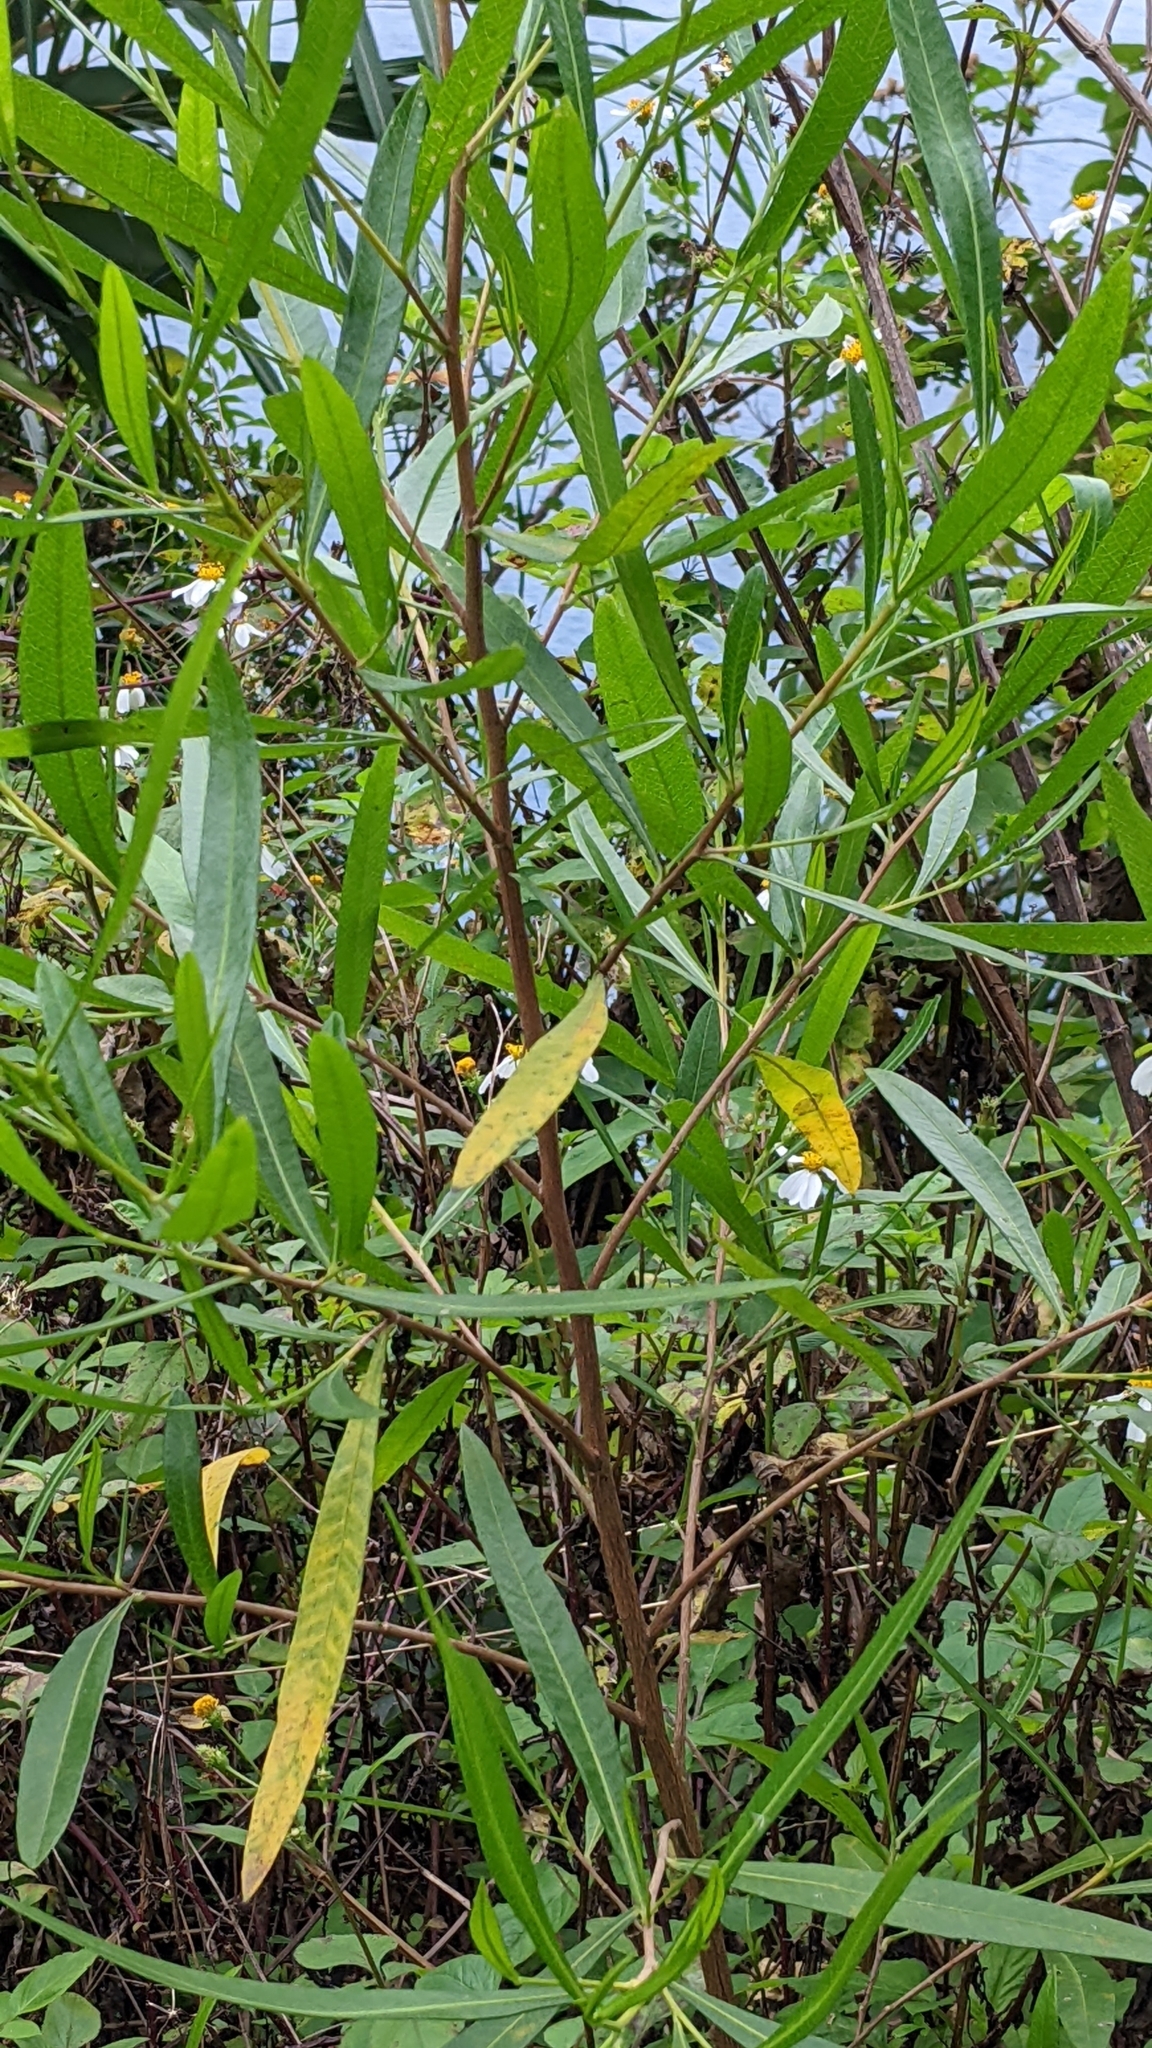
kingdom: Plantae
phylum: Tracheophyta
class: Magnoliopsida
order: Sapindales
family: Sapindaceae
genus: Dodonaea
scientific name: Dodonaea viscosa
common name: Hopbush
